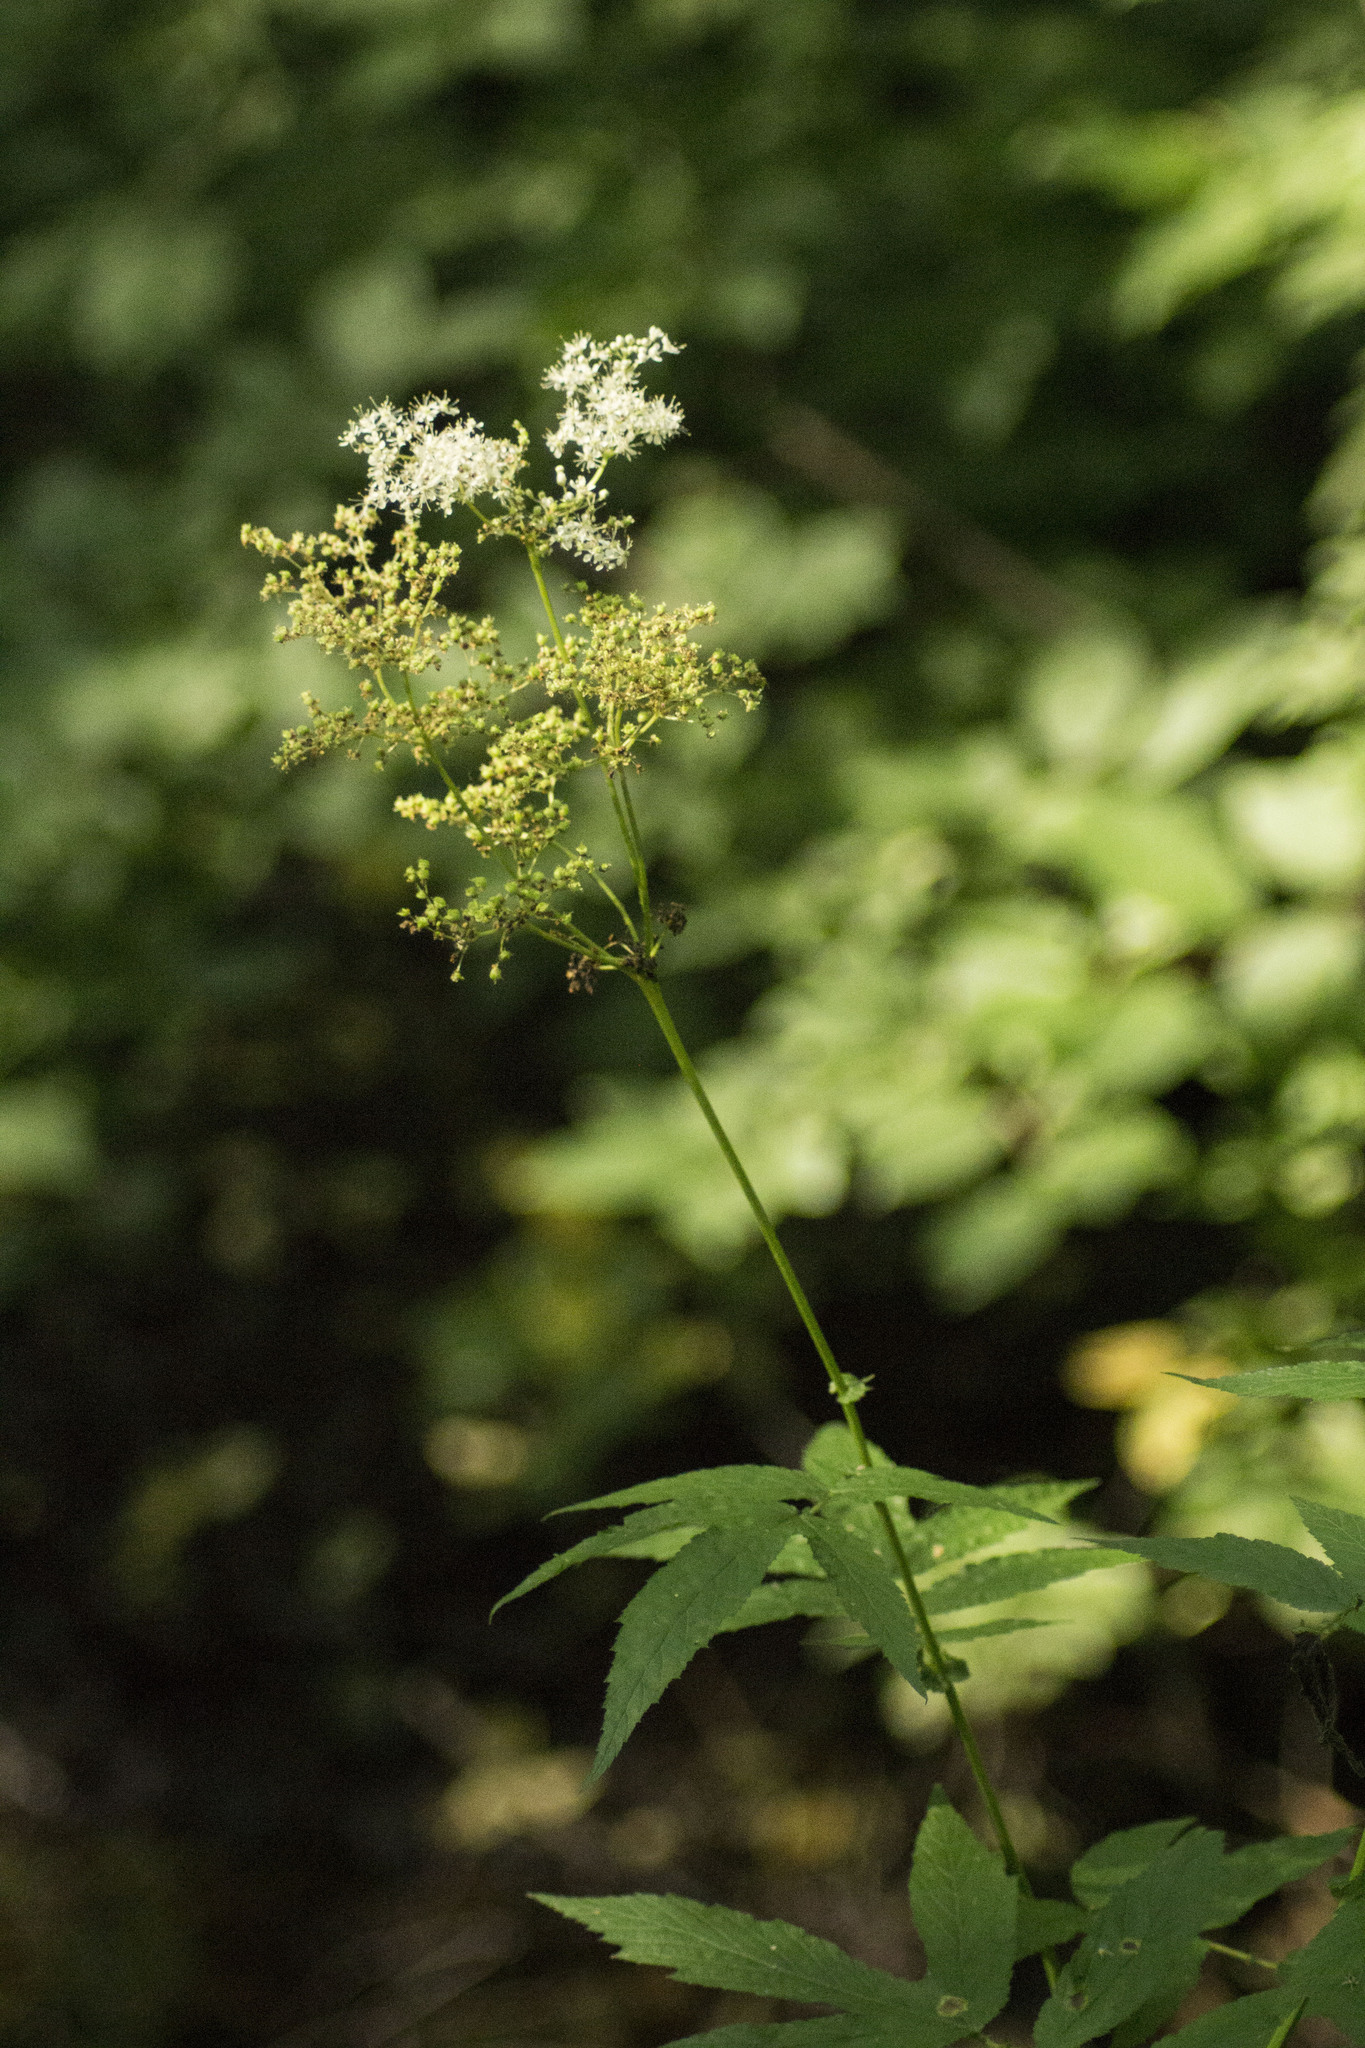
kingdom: Plantae
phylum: Tracheophyta
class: Magnoliopsida
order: Rosales
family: Rosaceae
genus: Filipendula
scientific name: Filipendula ulmaria
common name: Meadowsweet
